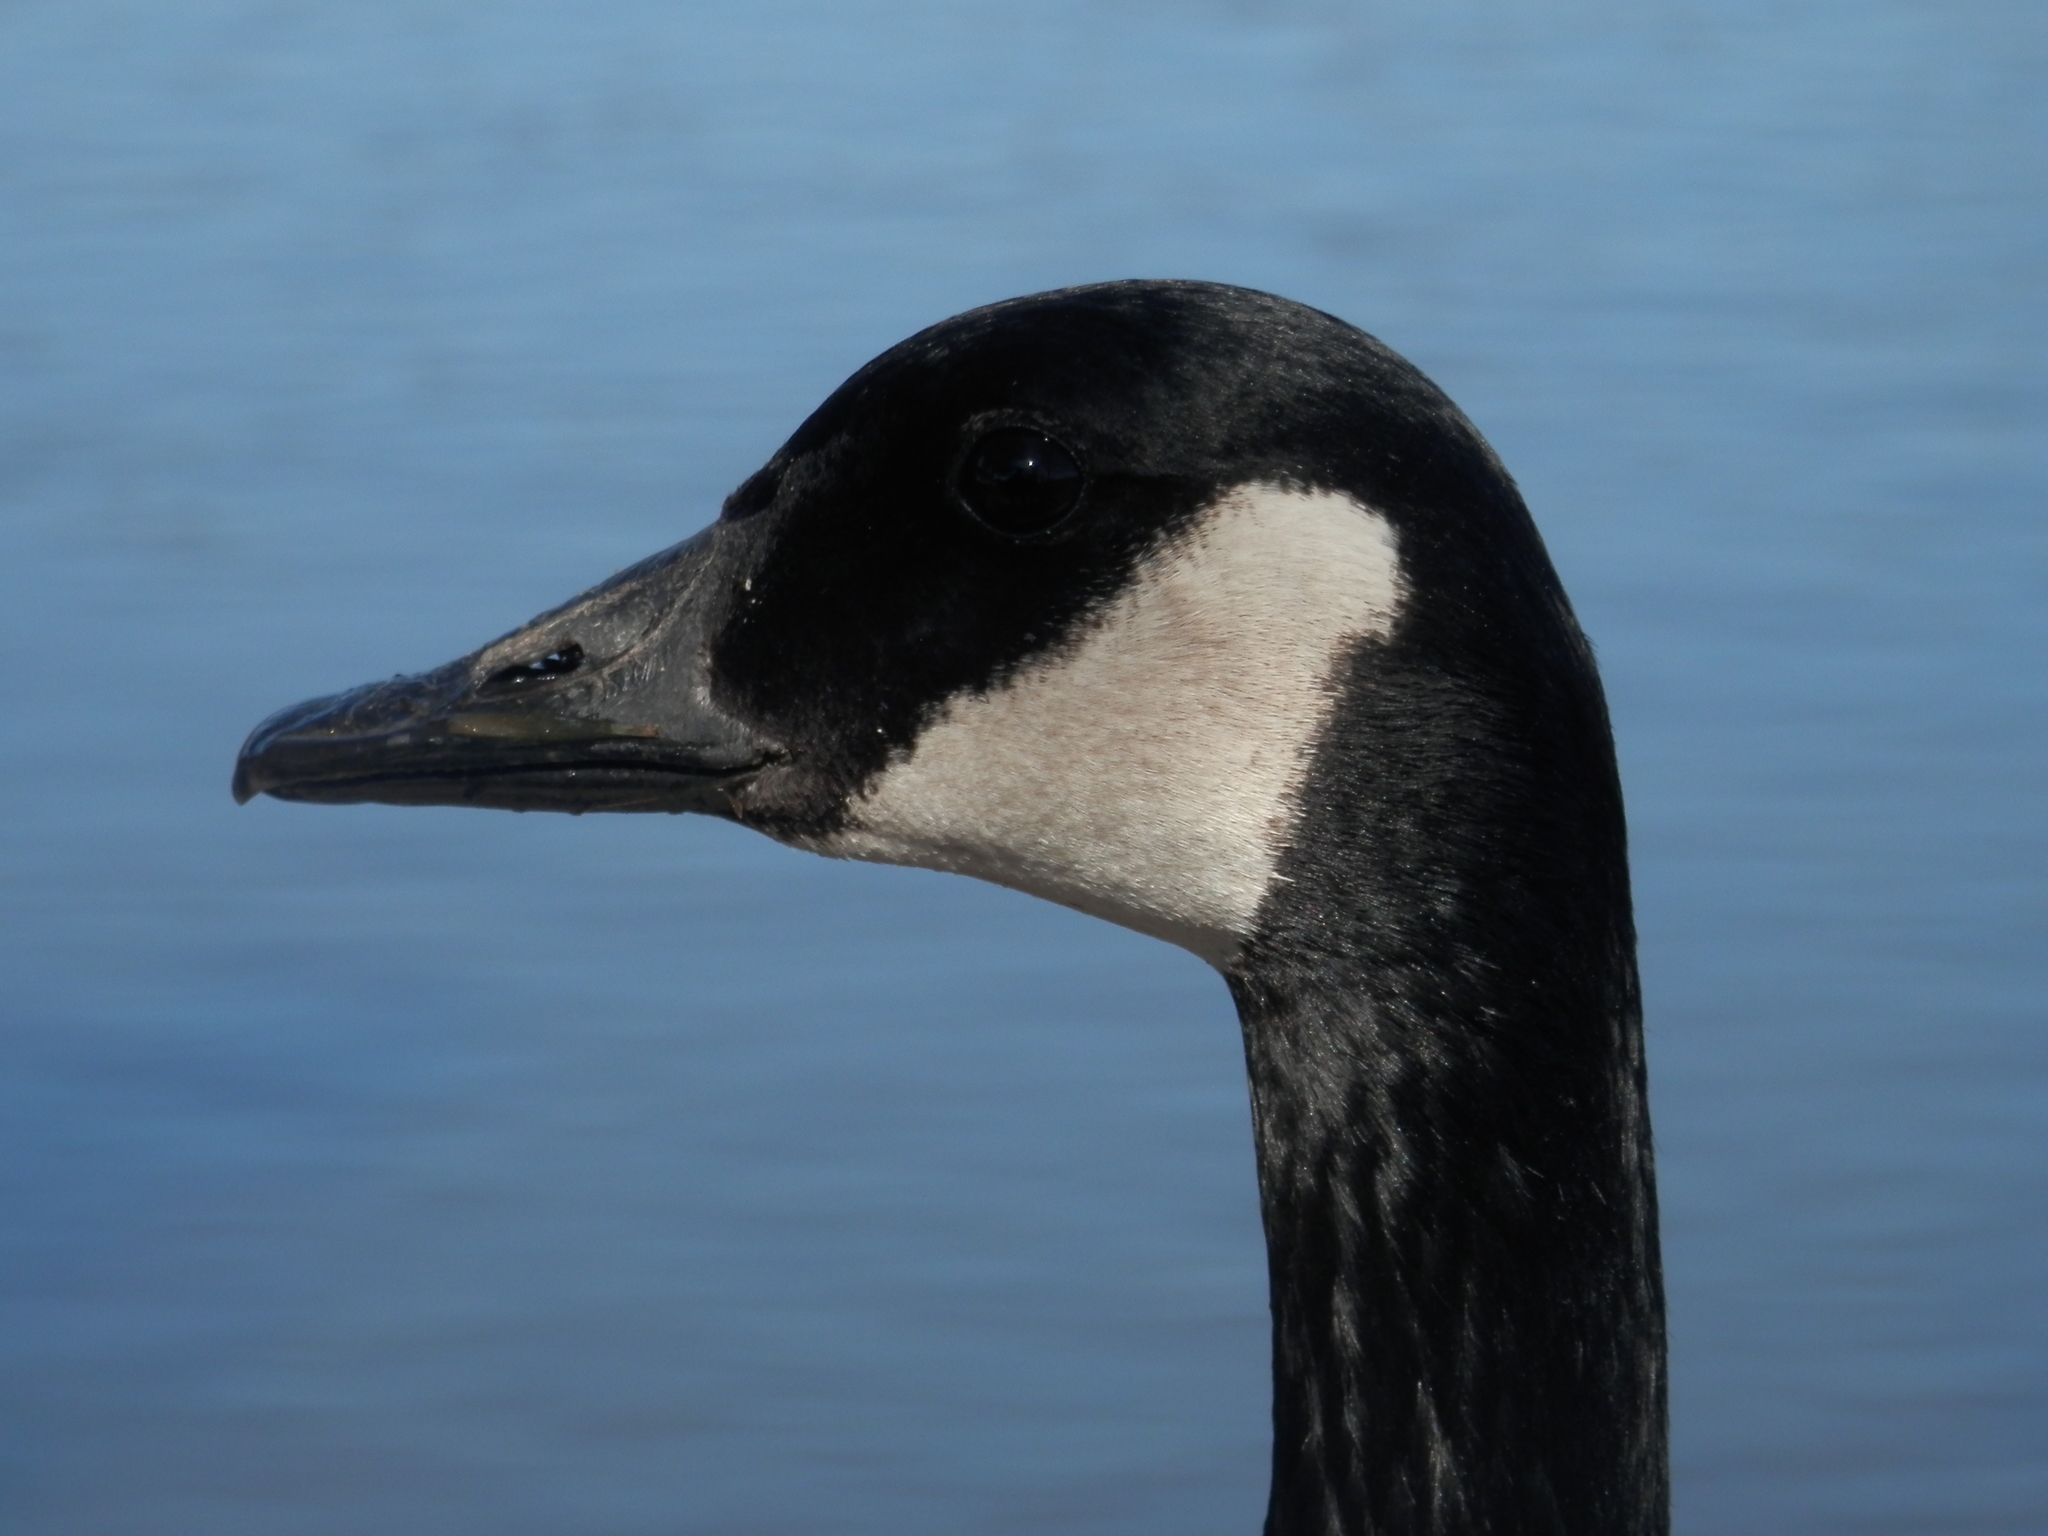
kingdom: Animalia
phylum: Chordata
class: Aves
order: Anseriformes
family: Anatidae
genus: Branta
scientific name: Branta canadensis
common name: Canada goose
